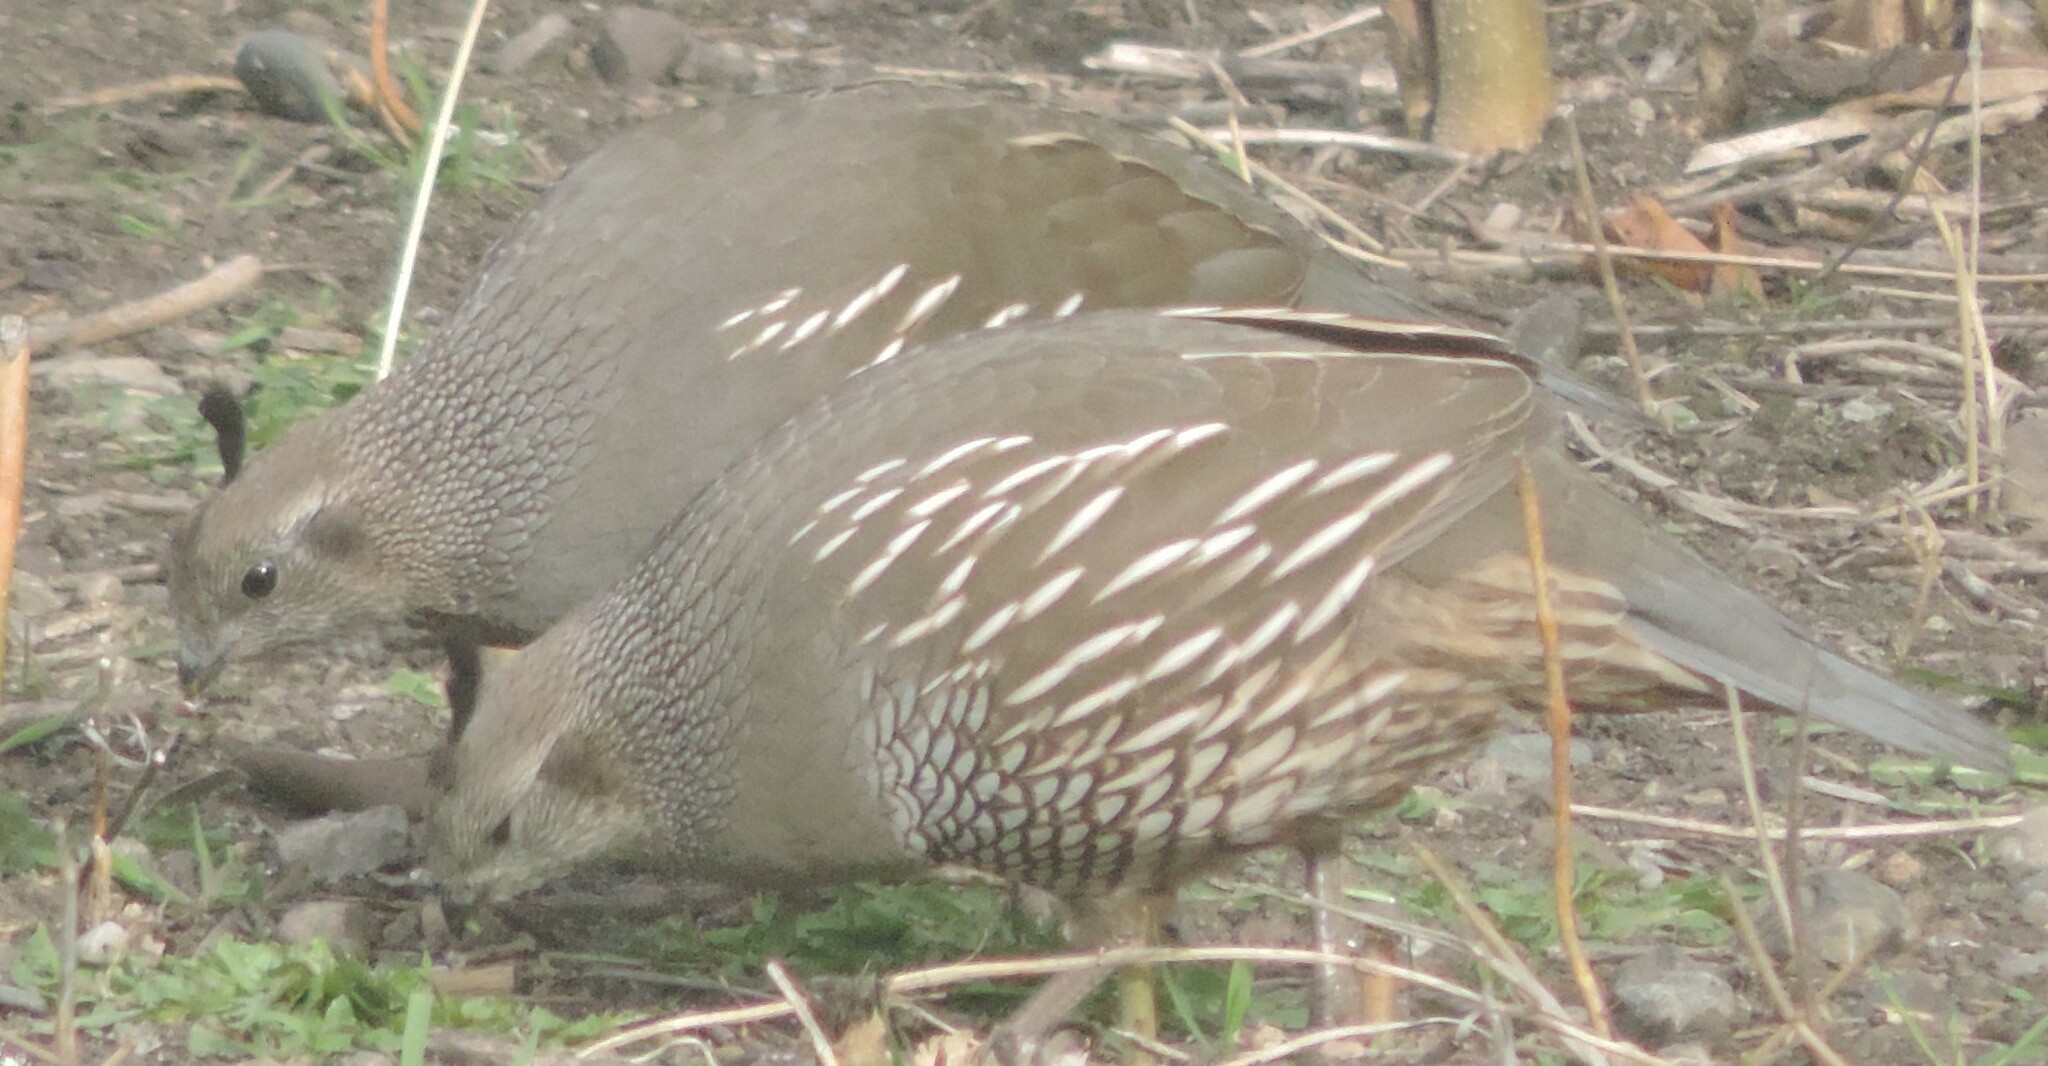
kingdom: Animalia
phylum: Chordata
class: Aves
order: Galliformes
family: Odontophoridae
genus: Callipepla
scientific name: Callipepla californica
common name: California quail
